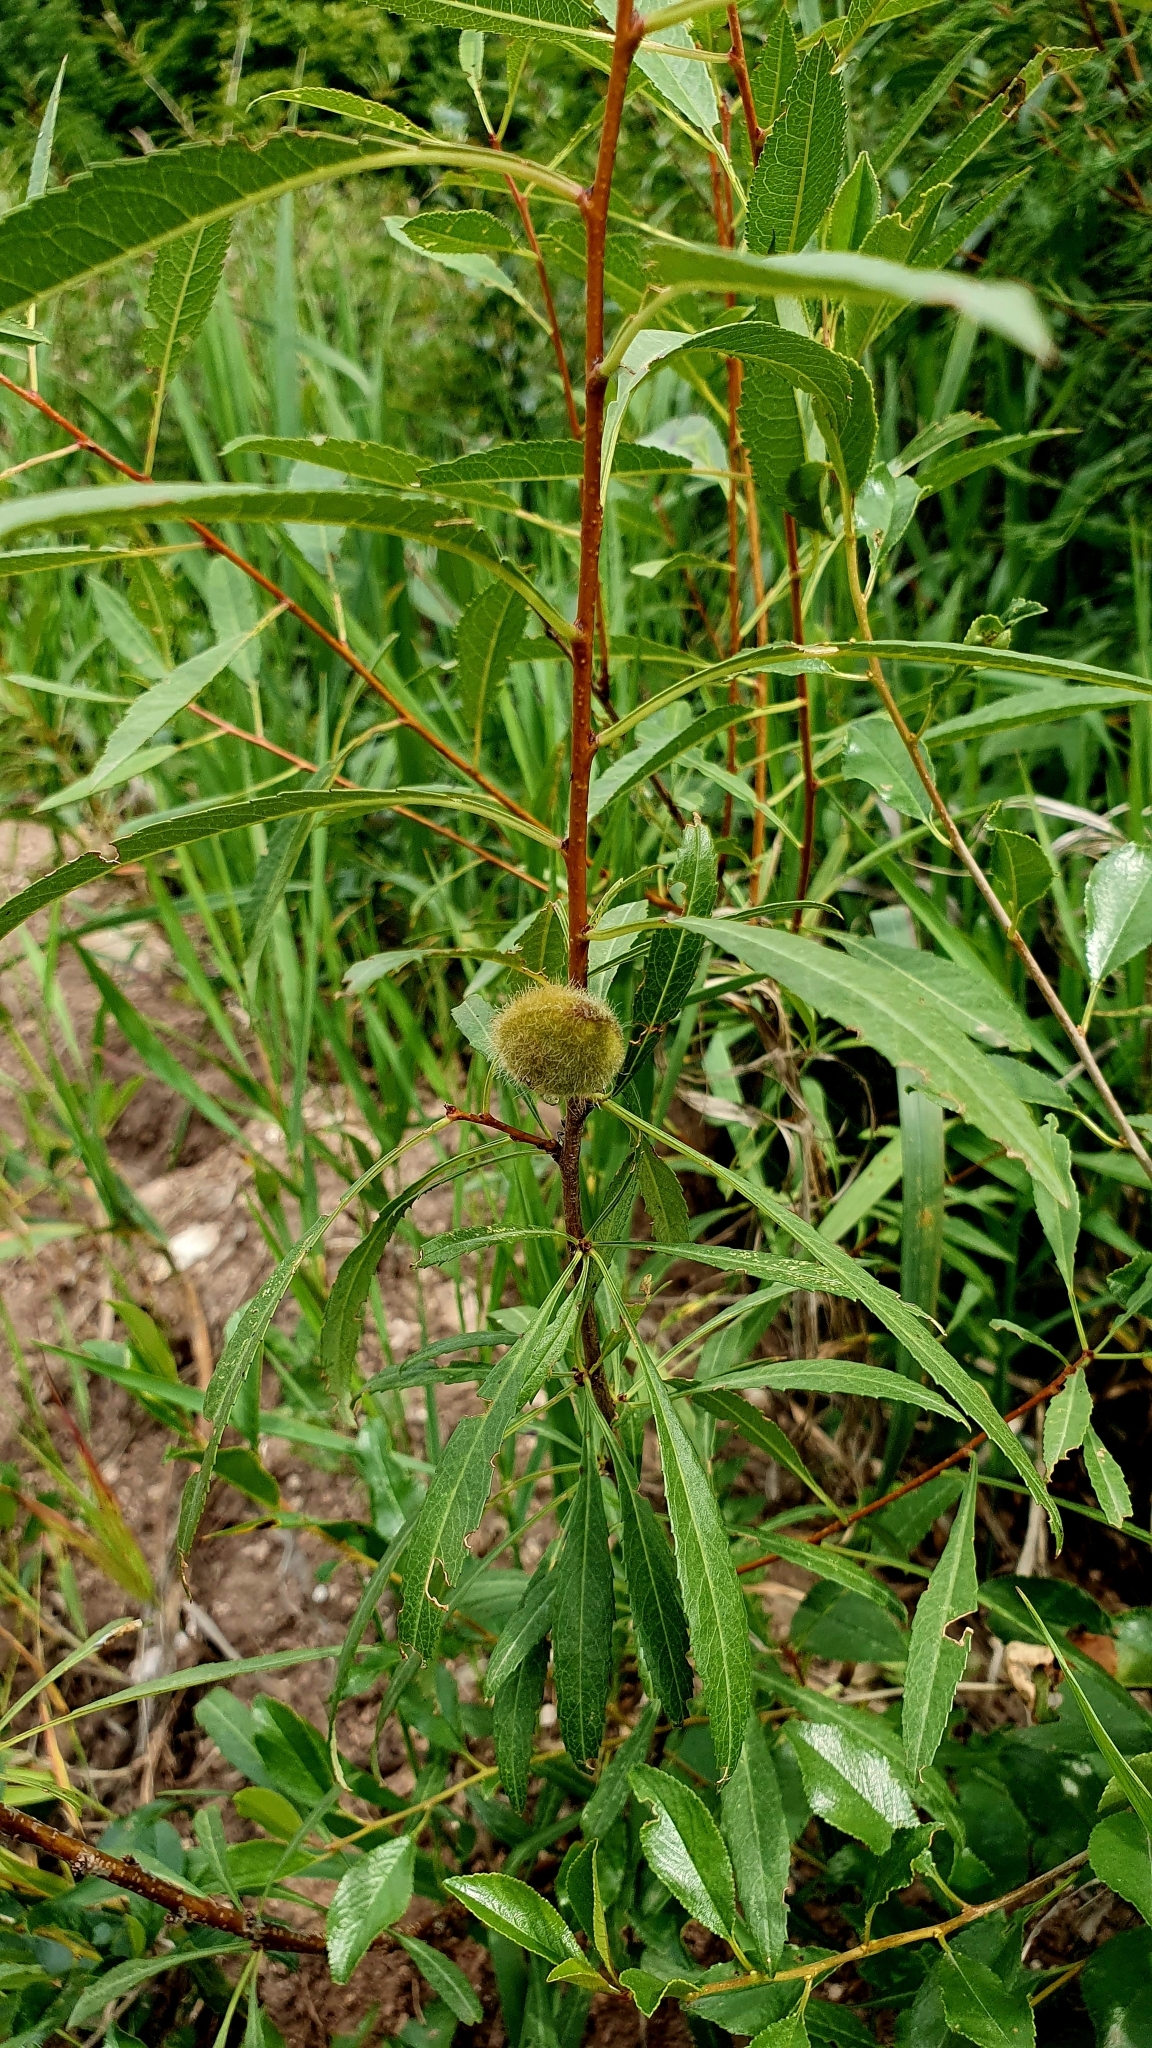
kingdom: Plantae
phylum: Tracheophyta
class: Magnoliopsida
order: Rosales
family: Rosaceae
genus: Prunus
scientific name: Prunus tenella
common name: Dwarf russian almond
